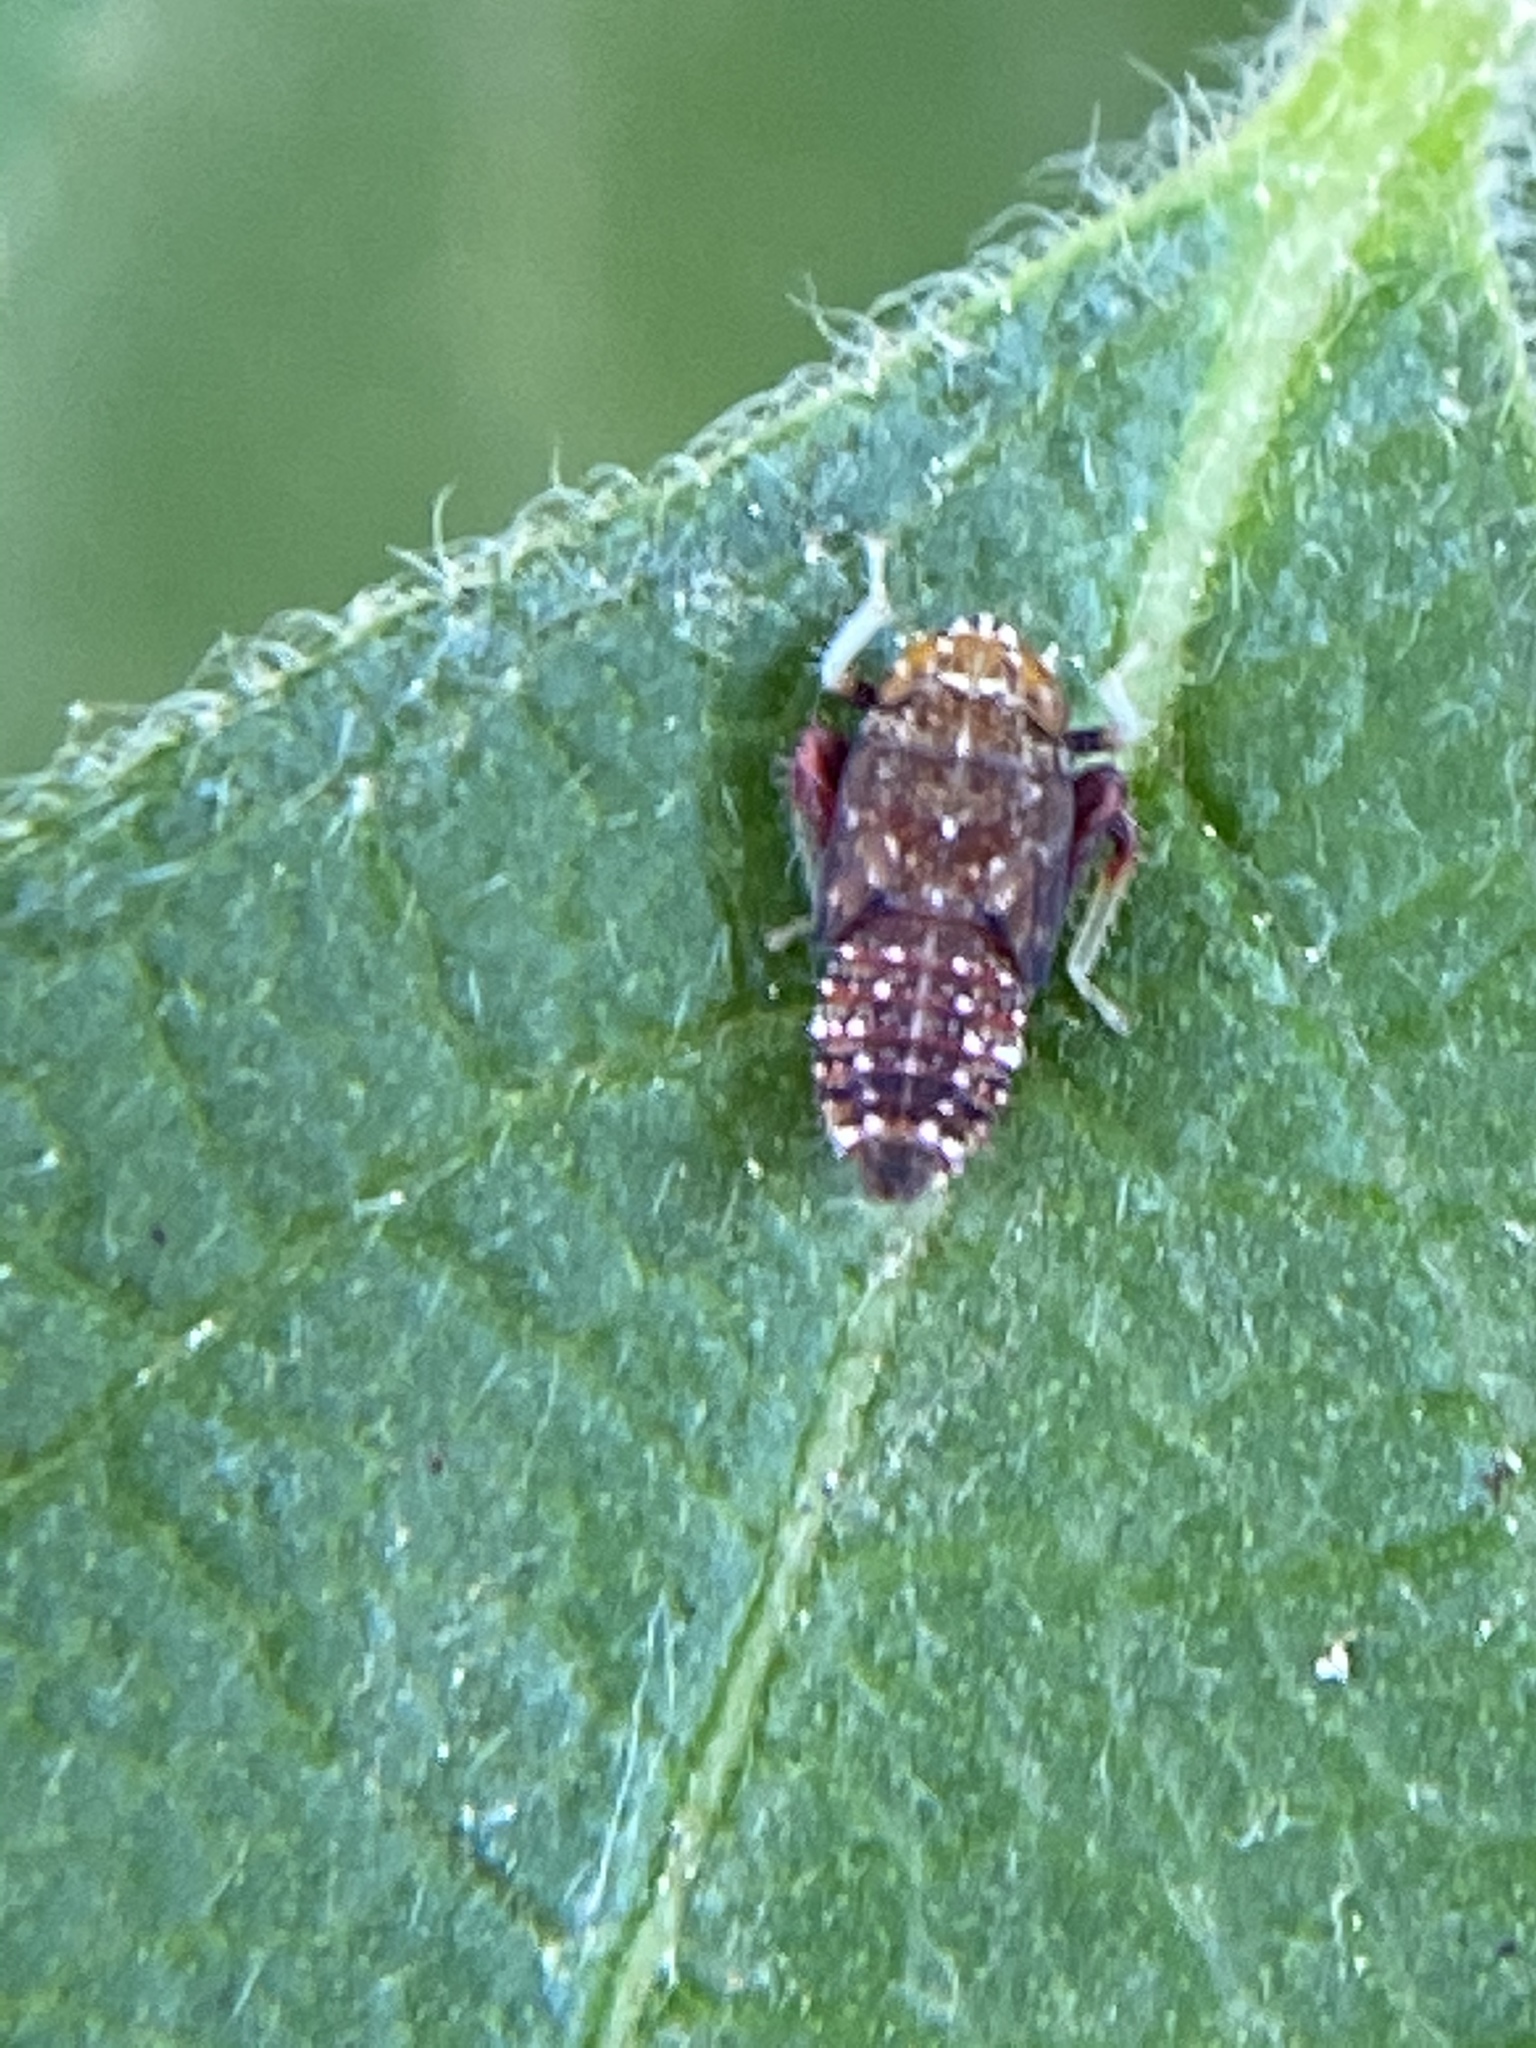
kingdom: Animalia
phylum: Arthropoda
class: Insecta
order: Hemiptera
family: Cicadellidae
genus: Orientus
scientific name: Orientus ishidae
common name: Japanese leafhopper
